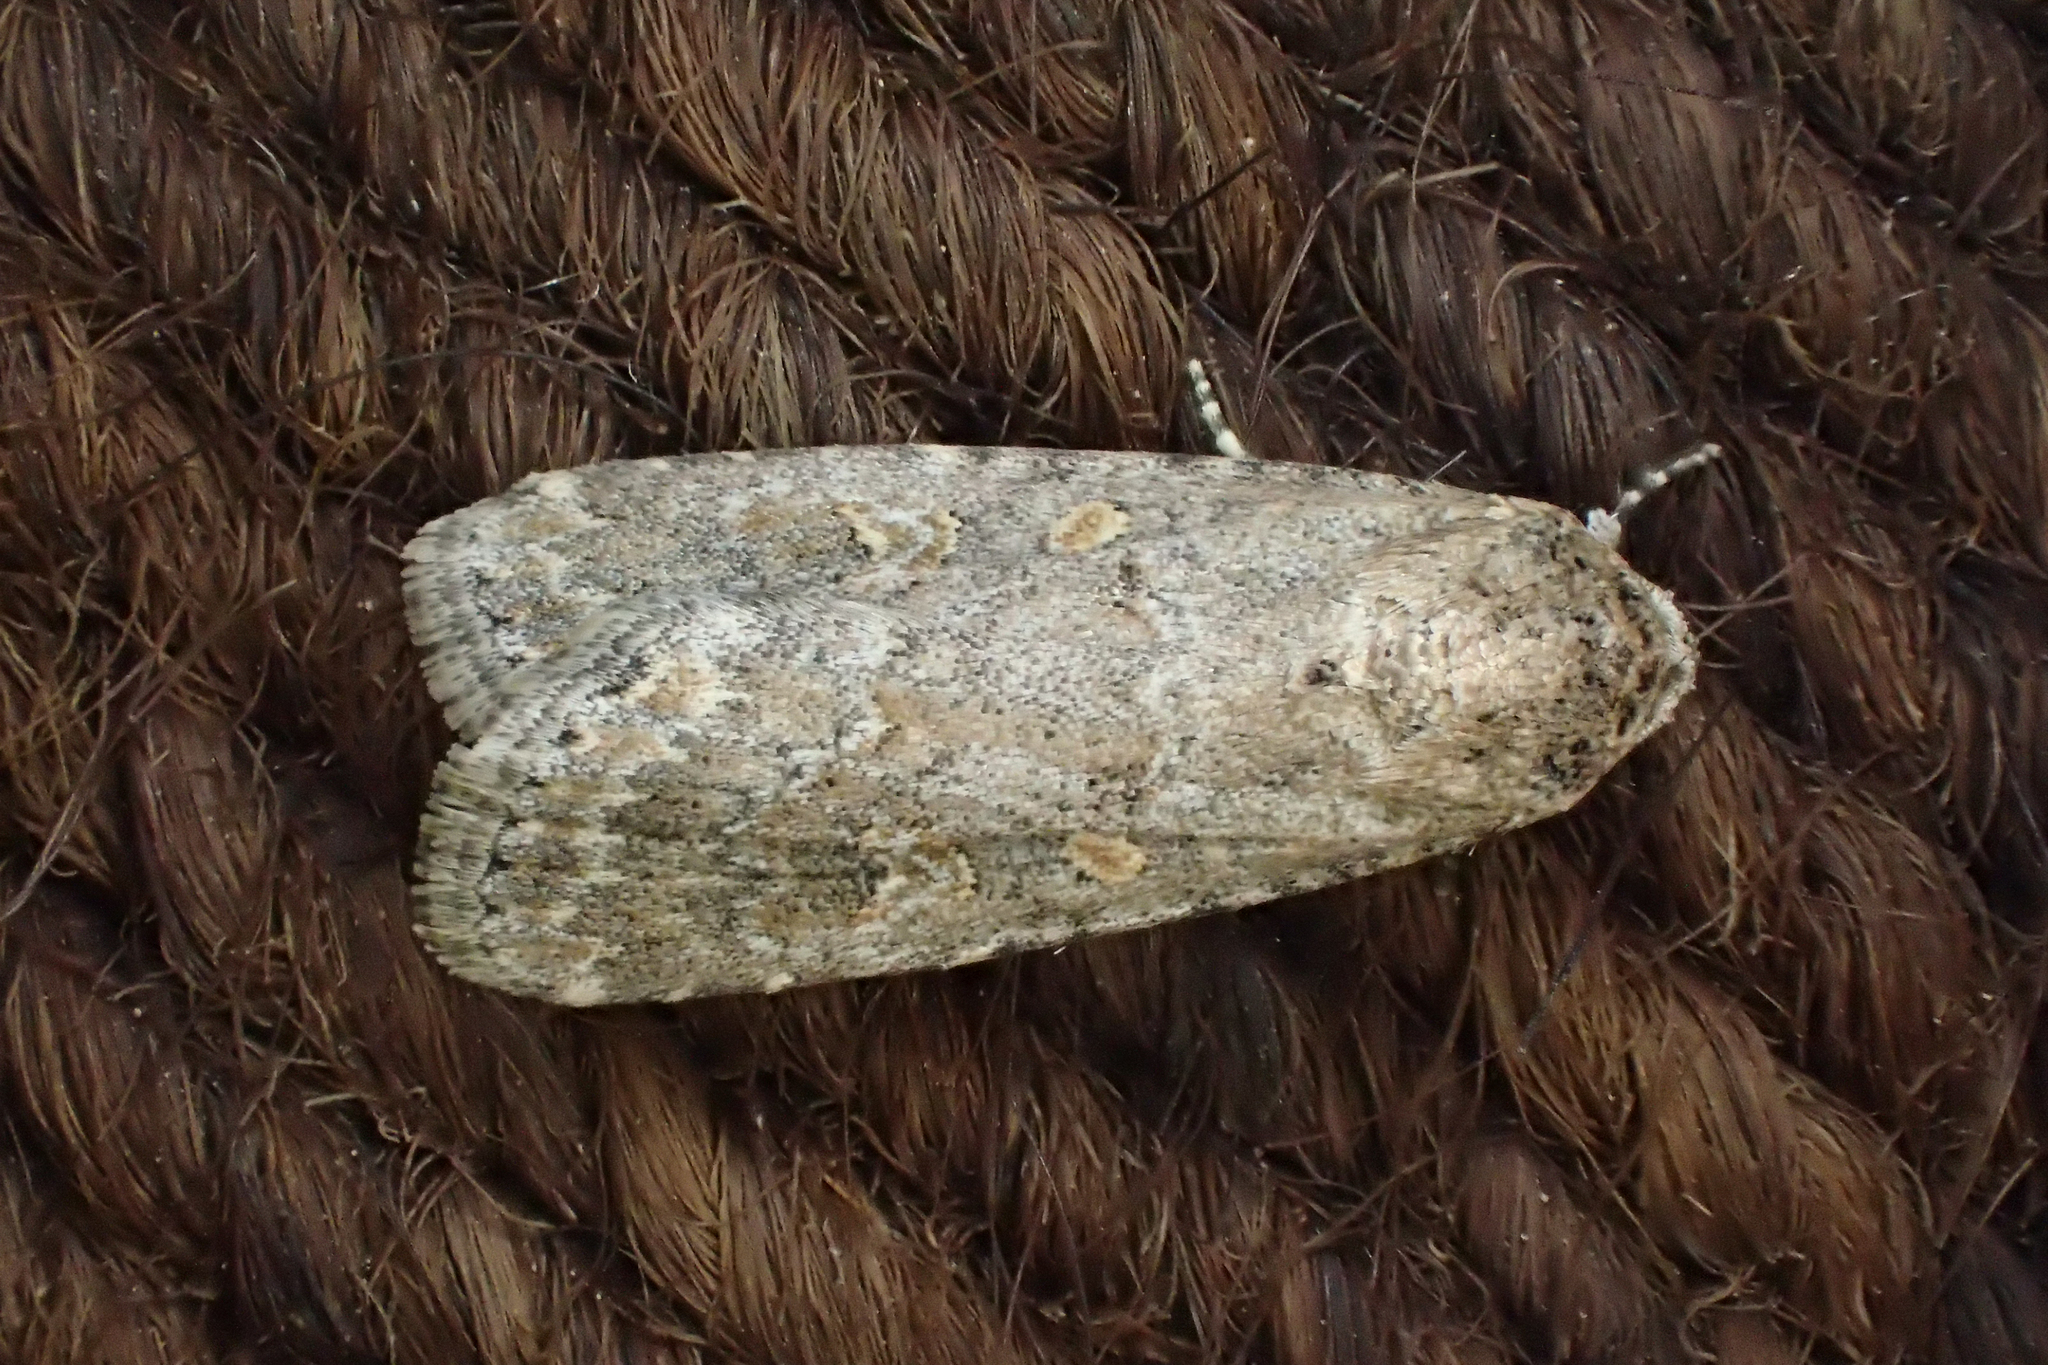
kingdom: Animalia
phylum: Arthropoda
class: Insecta
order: Lepidoptera
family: Noctuidae
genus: Spodoptera
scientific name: Spodoptera exigua
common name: Beet armyworm
